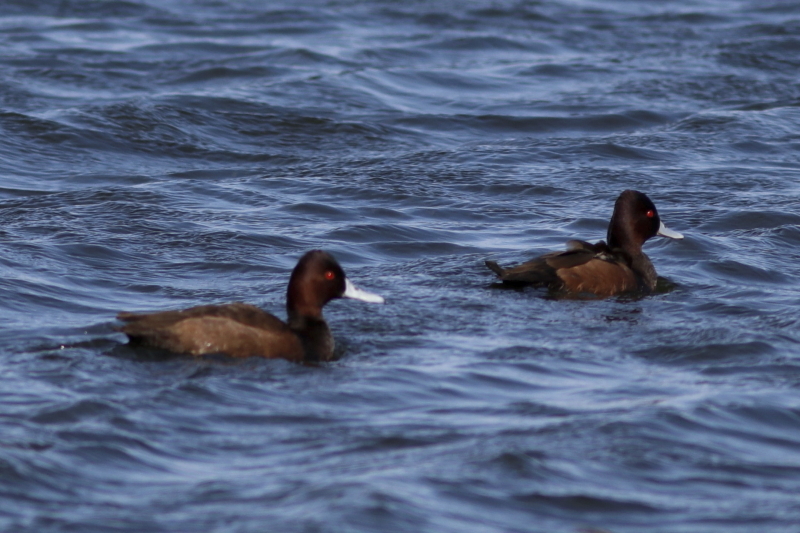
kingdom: Animalia
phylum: Chordata
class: Aves
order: Anseriformes
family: Anatidae
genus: Netta
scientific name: Netta erythrophthalma
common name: Southern pochard
